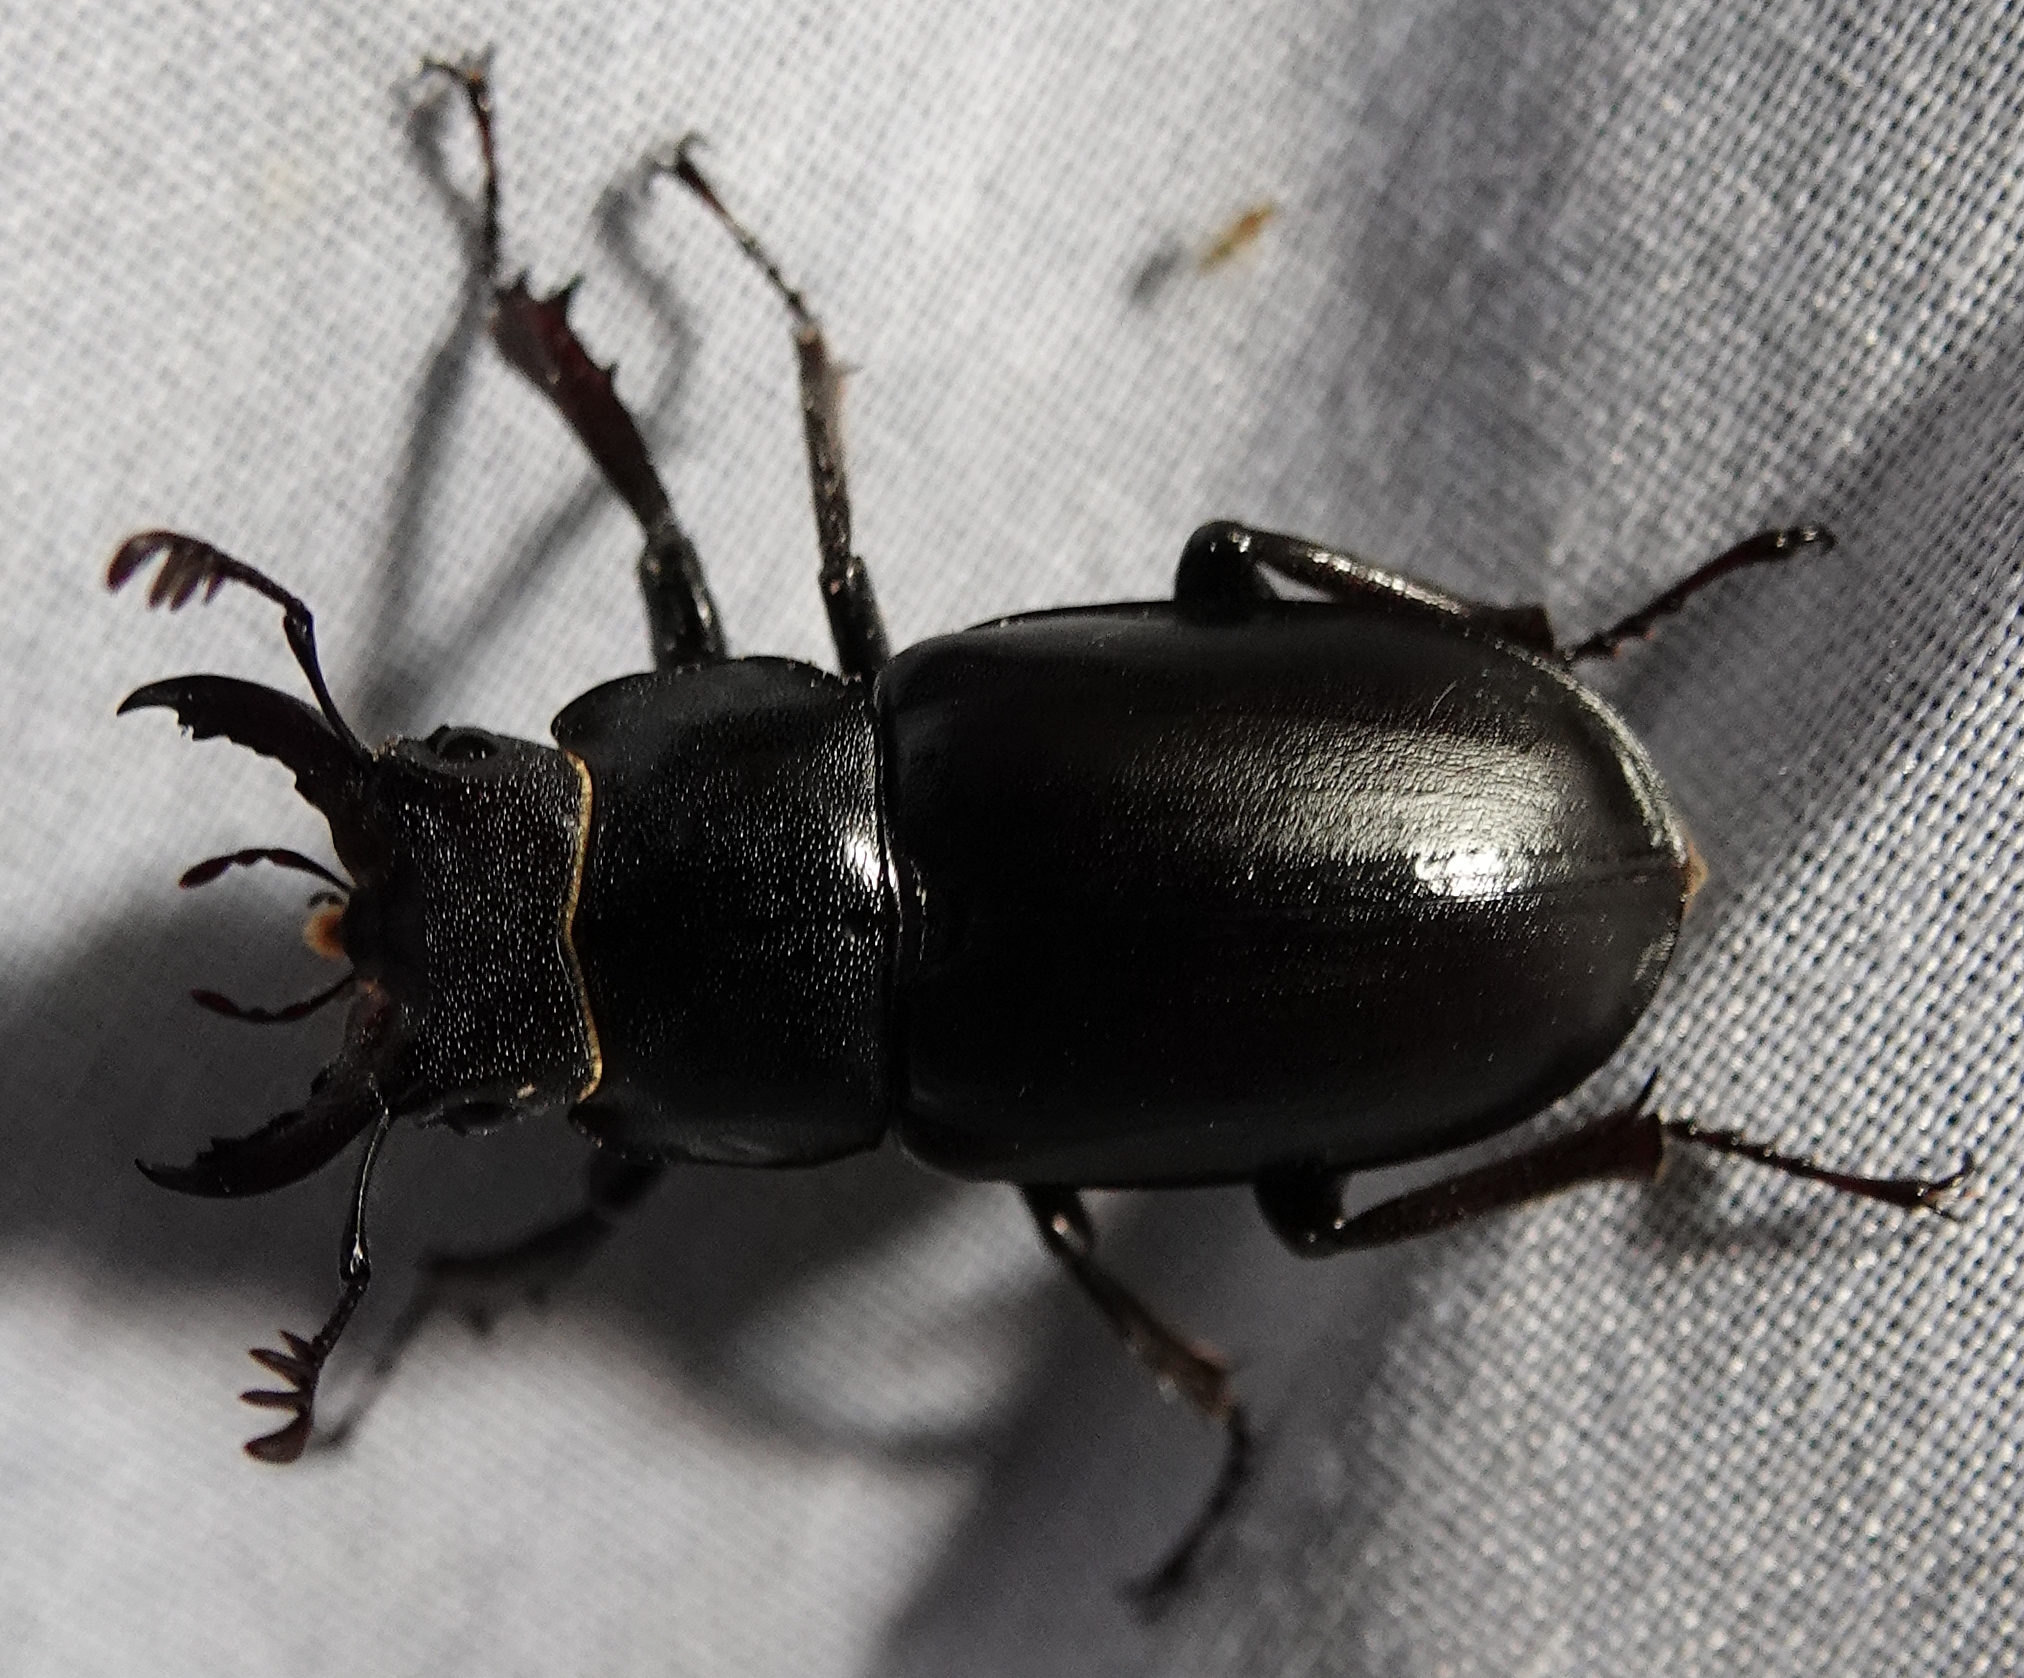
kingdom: Animalia
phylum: Arthropoda
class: Insecta
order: Coleoptera
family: Lucanidae
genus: Lucanus
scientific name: Lucanus placidus
